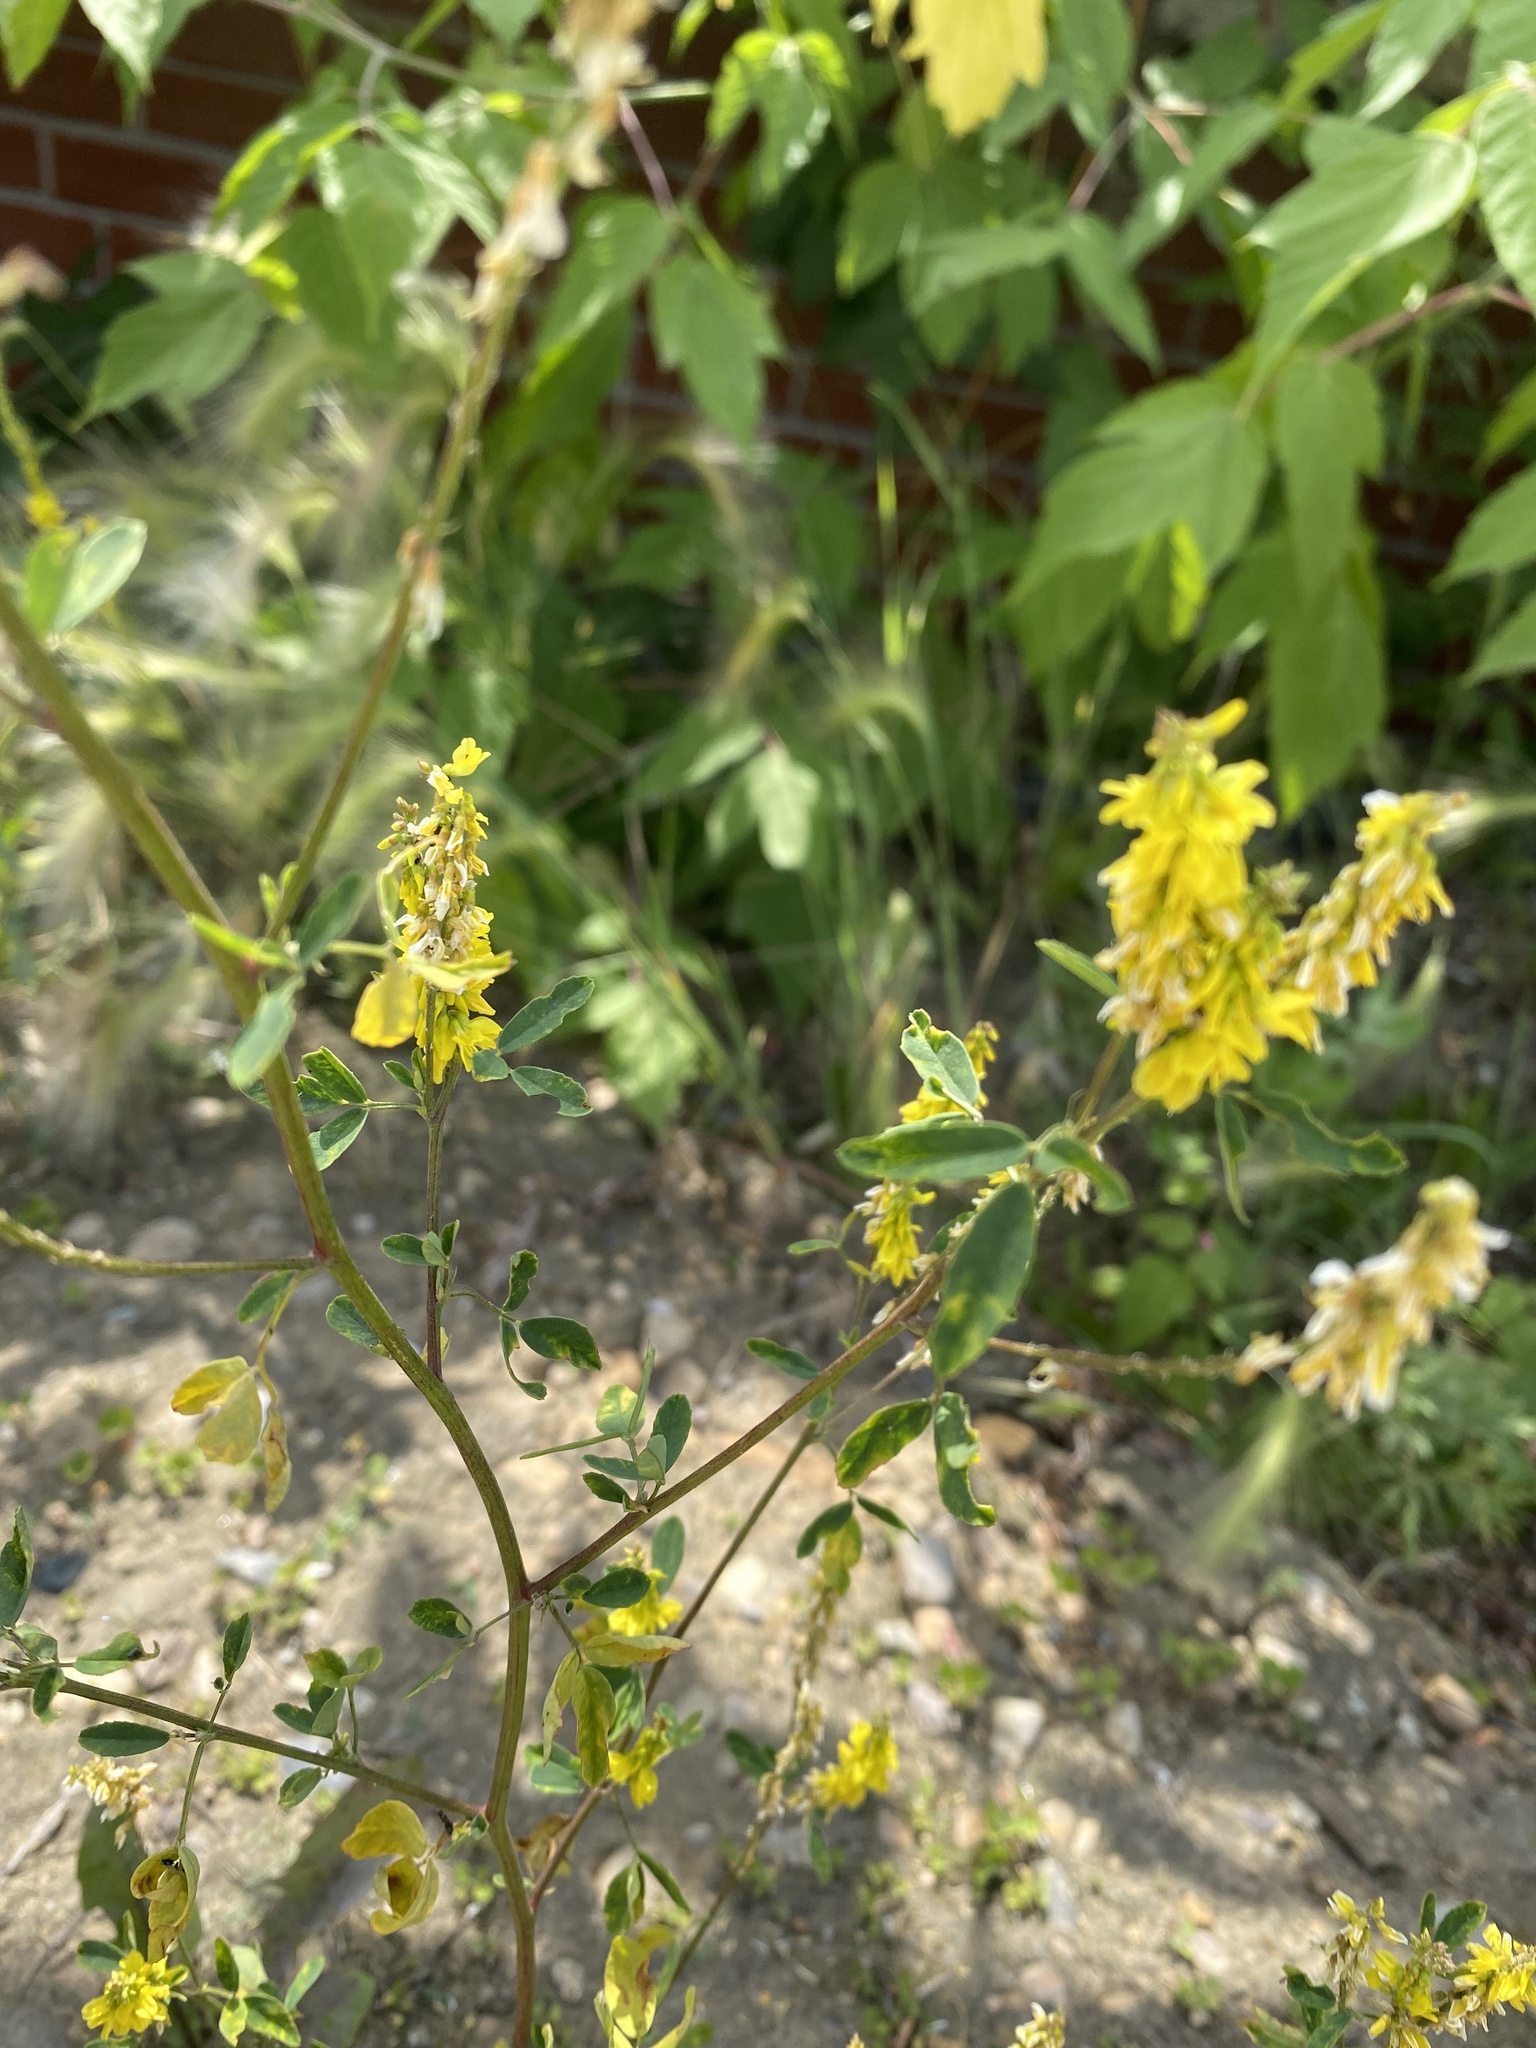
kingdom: Plantae
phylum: Tracheophyta
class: Magnoliopsida
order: Fabales
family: Fabaceae
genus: Melilotus
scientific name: Melilotus officinalis
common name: Sweetclover
